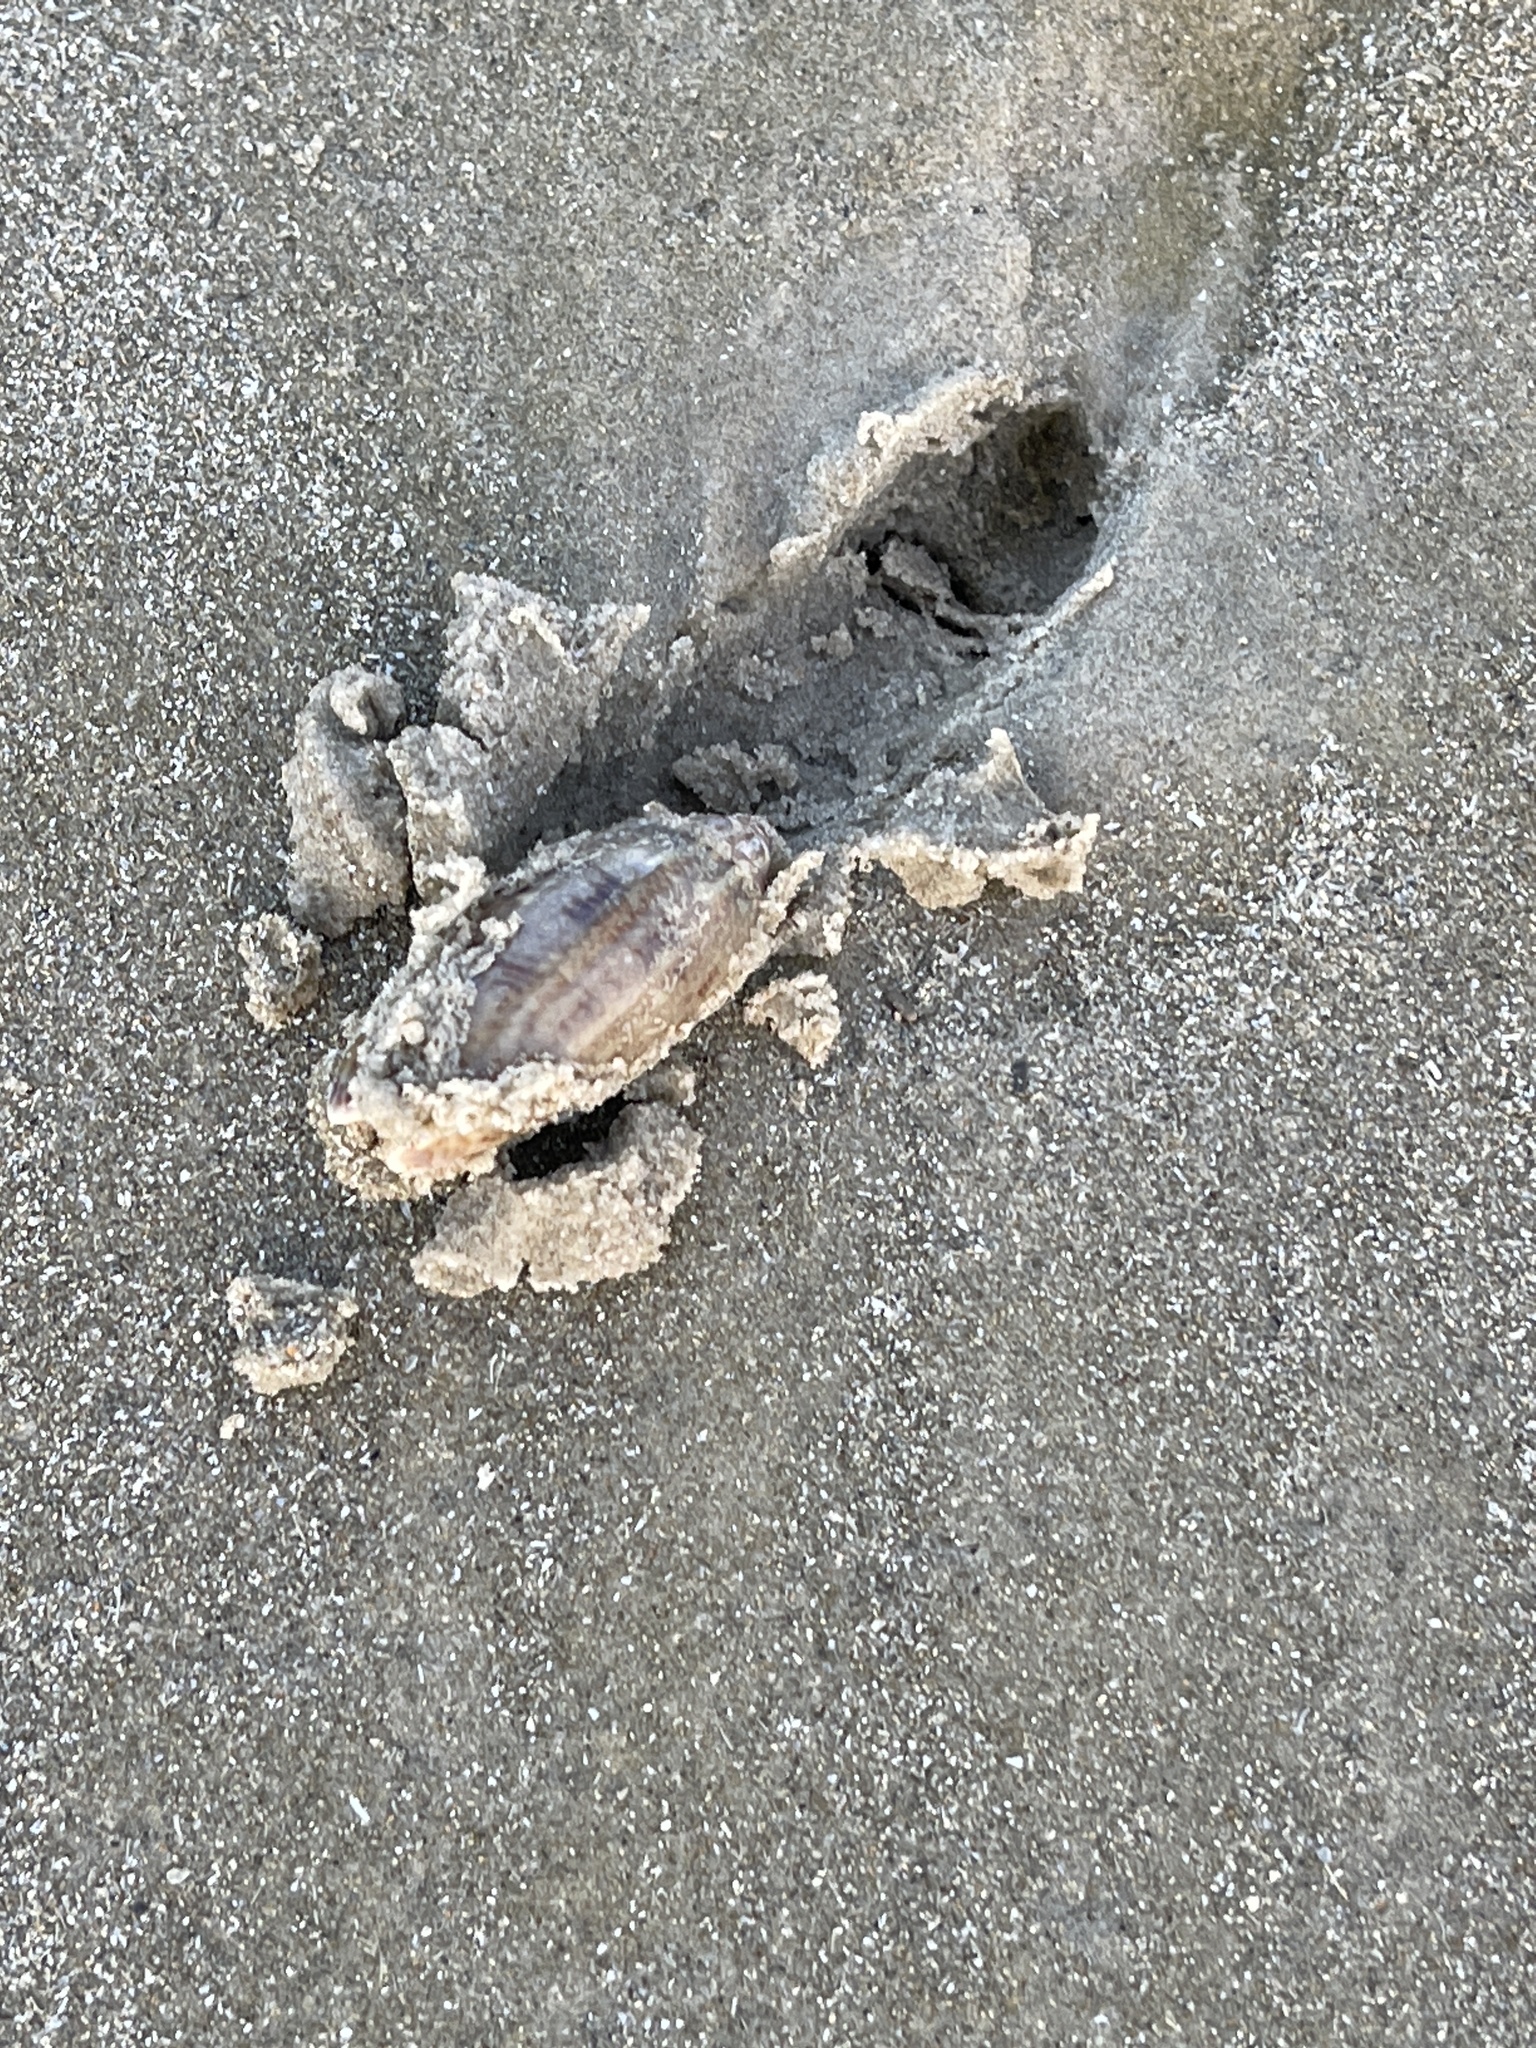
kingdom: Animalia
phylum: Mollusca
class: Gastropoda
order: Neogastropoda
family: Olividae
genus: Oliva
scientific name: Oliva sayana
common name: Lettered olive
